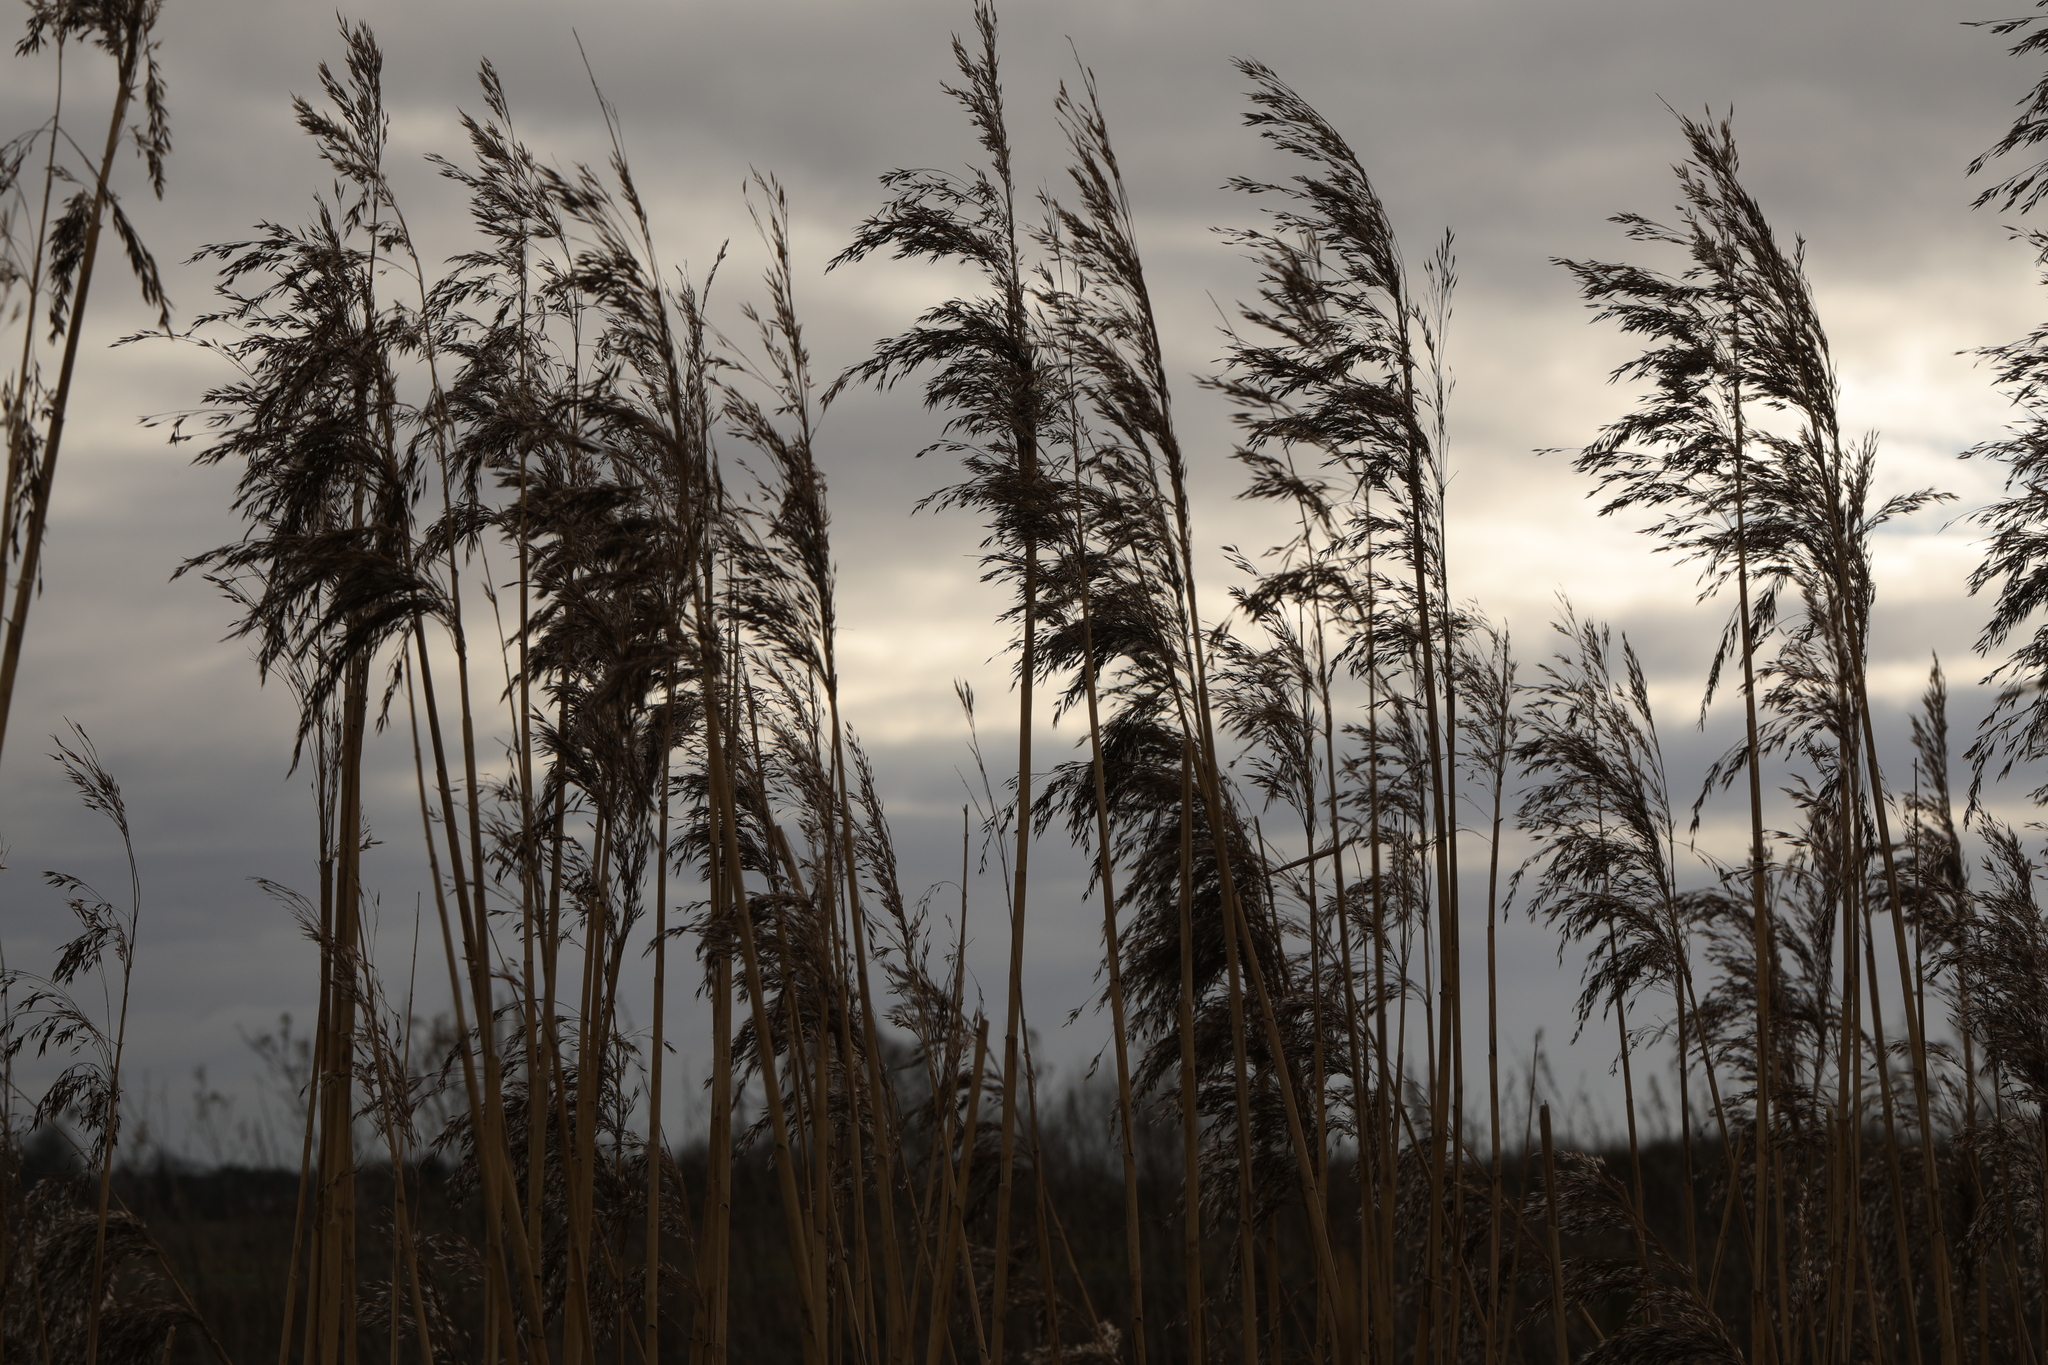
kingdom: Plantae
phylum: Tracheophyta
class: Liliopsida
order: Poales
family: Poaceae
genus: Phragmites
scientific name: Phragmites australis
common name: Common reed
